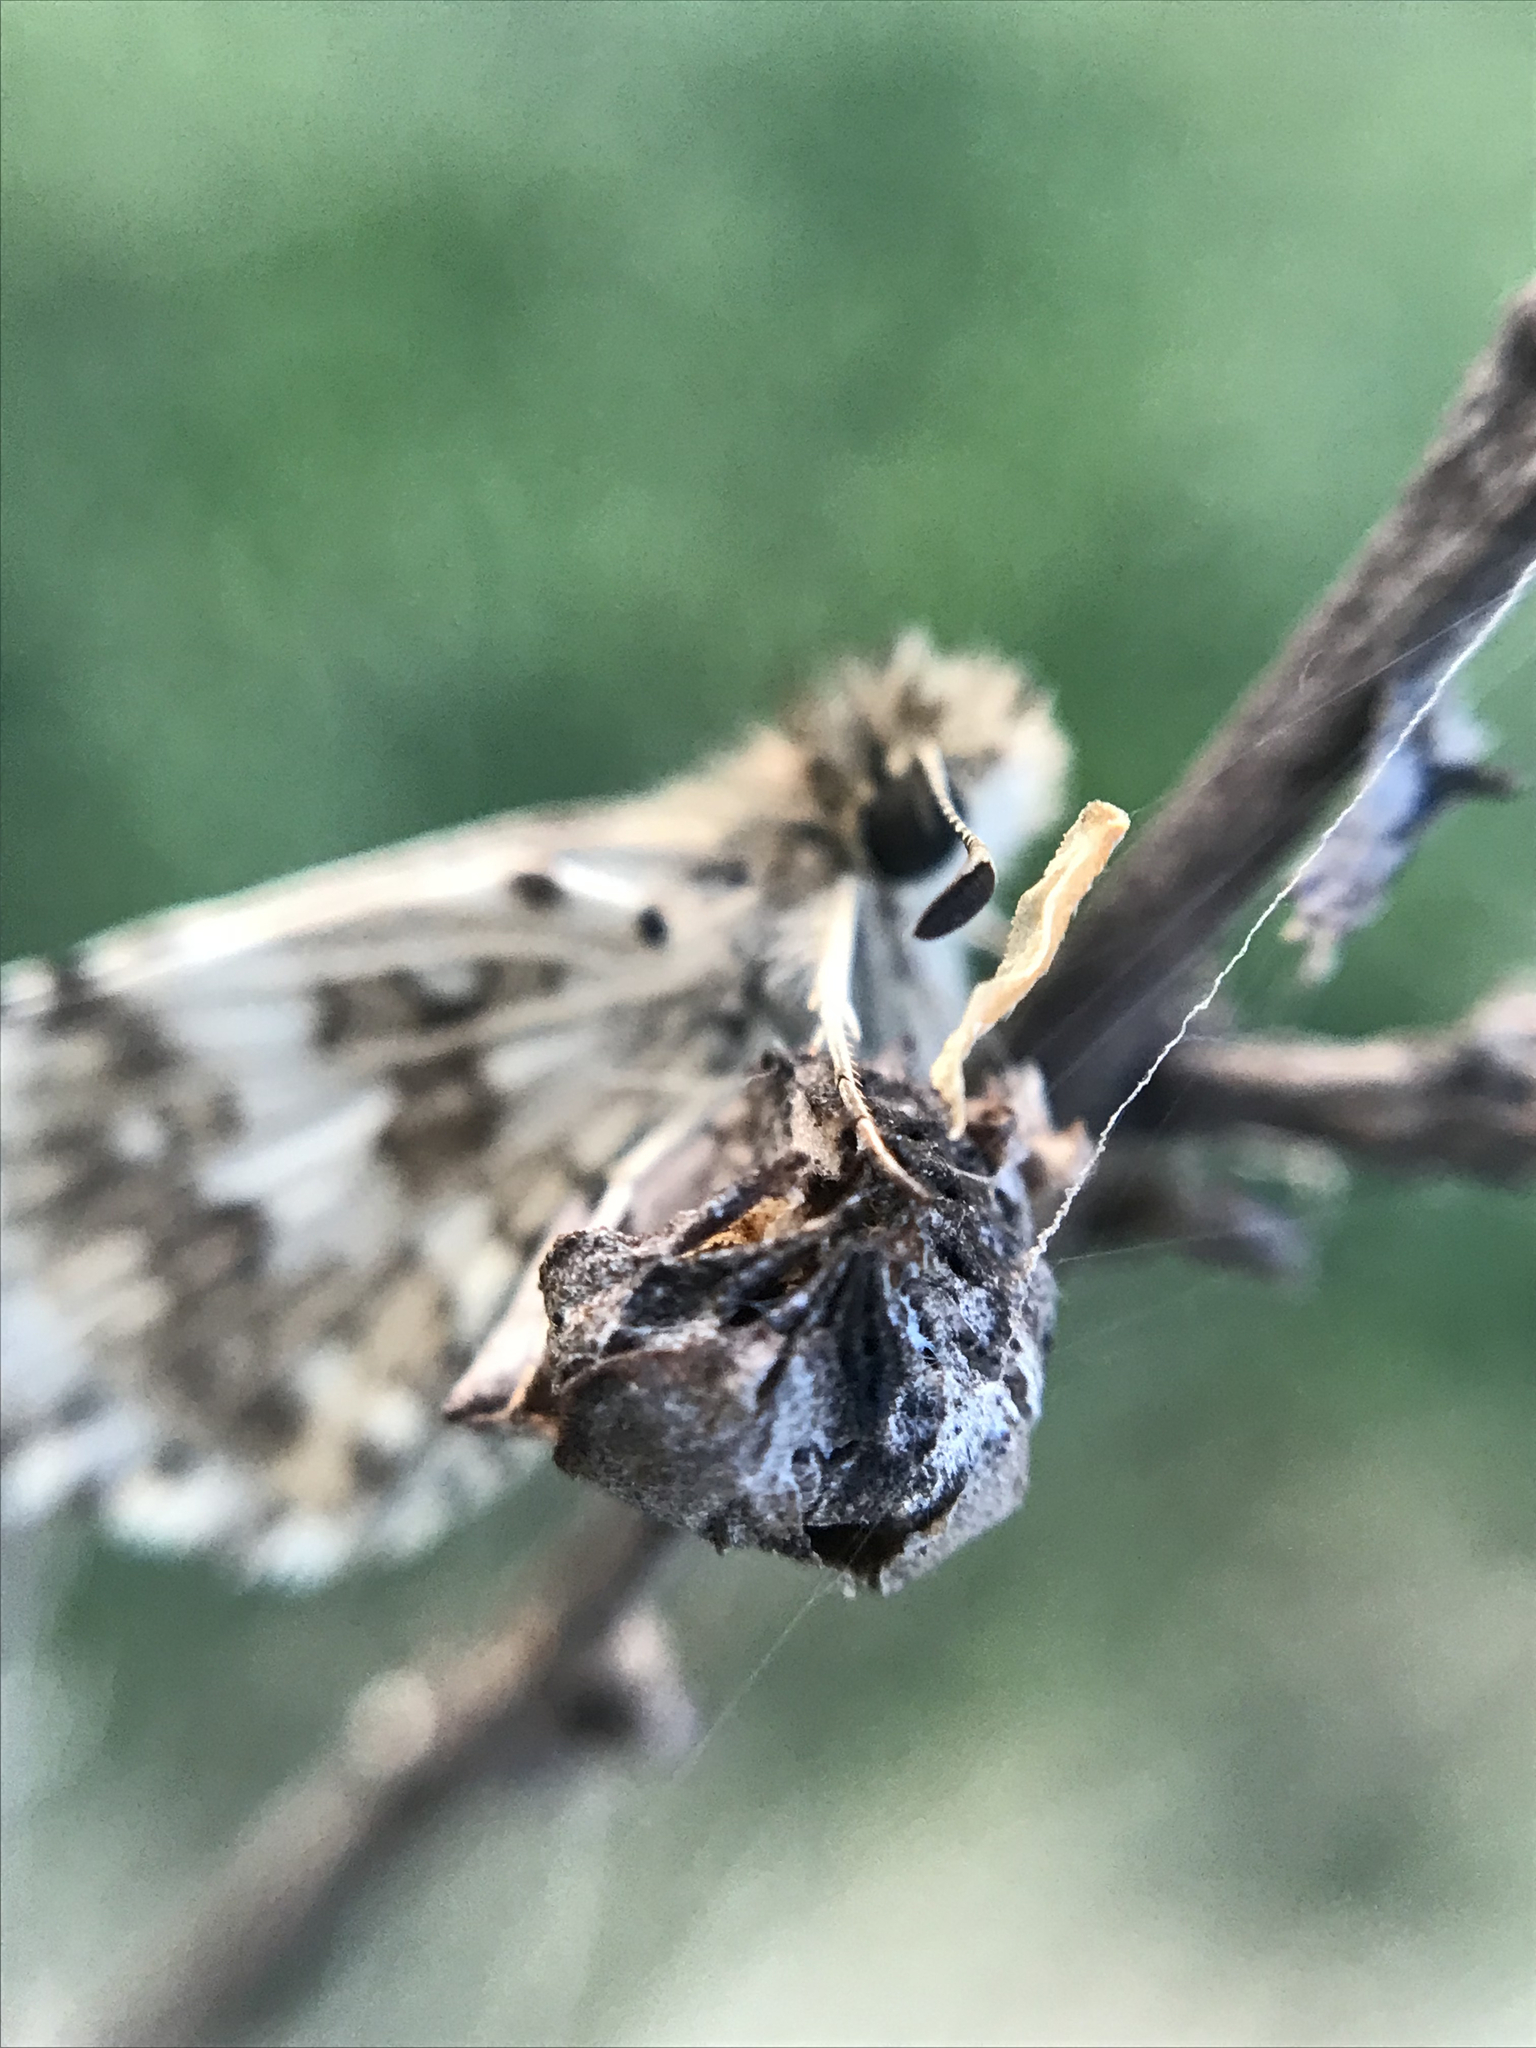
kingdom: Animalia
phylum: Arthropoda
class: Insecta
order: Lepidoptera
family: Hesperiidae
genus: Burnsius
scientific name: Burnsius orcynoides
